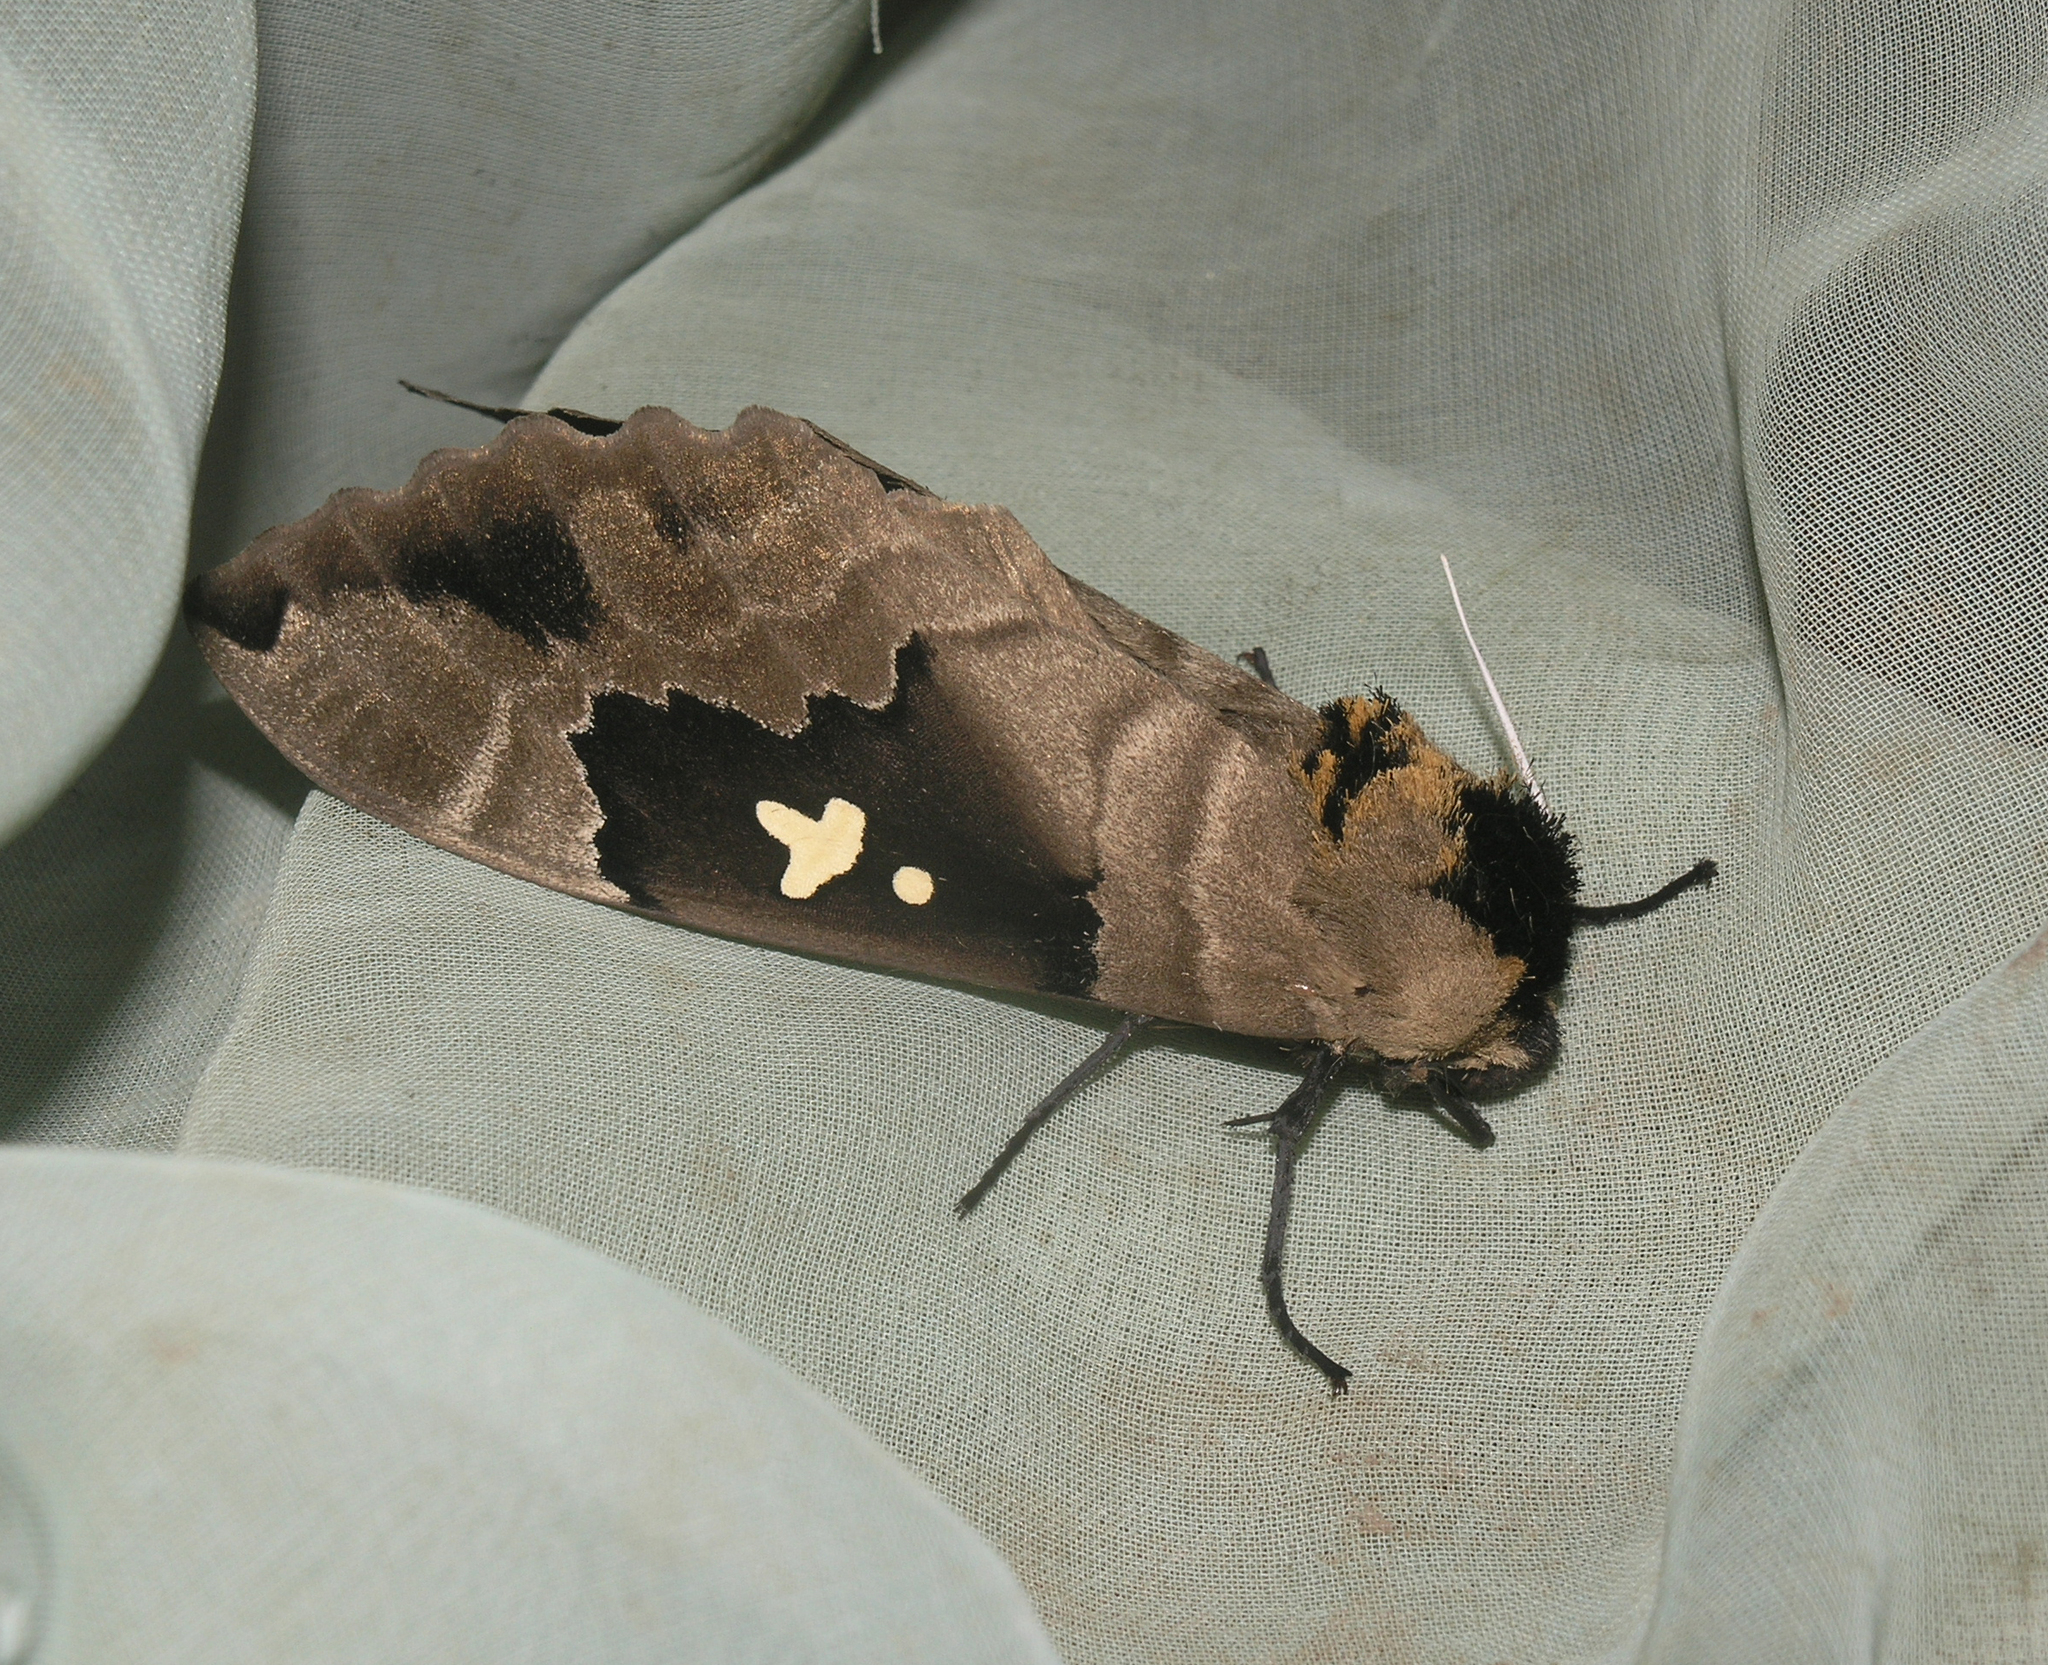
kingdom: Animalia
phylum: Arthropoda
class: Insecta
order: Lepidoptera
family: Sphingidae
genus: Lophostethus
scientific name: Lophostethus dumolinii
